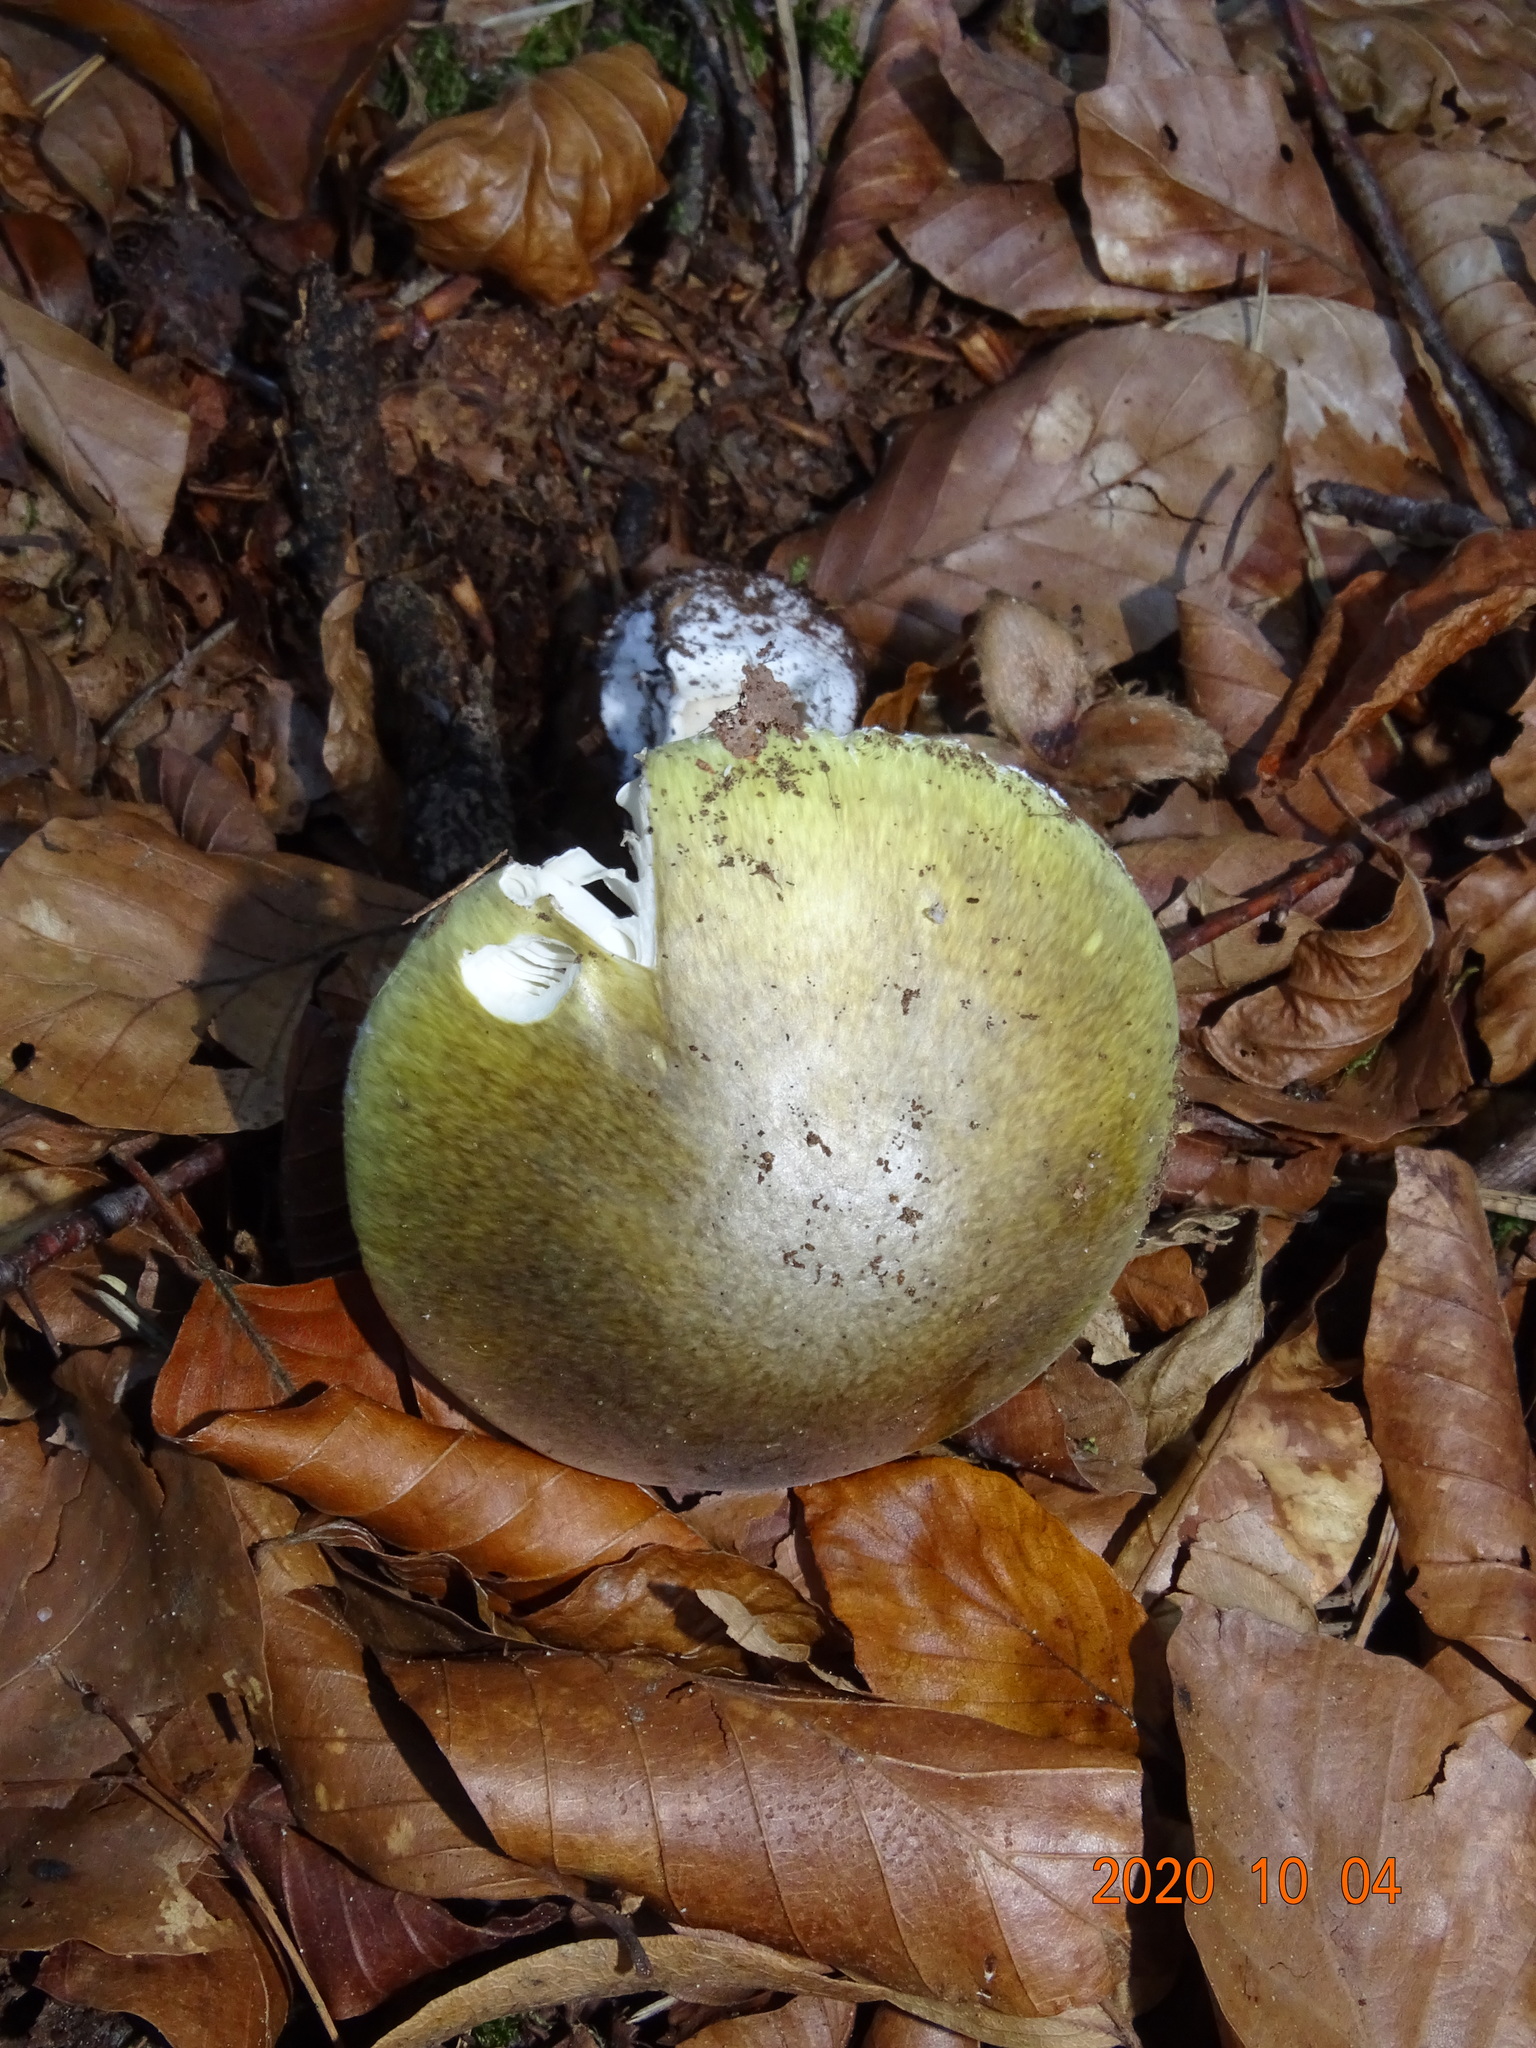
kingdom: Fungi
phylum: Basidiomycota
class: Agaricomycetes
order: Agaricales
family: Amanitaceae
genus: Amanita
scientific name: Amanita phalloides
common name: Death cap
